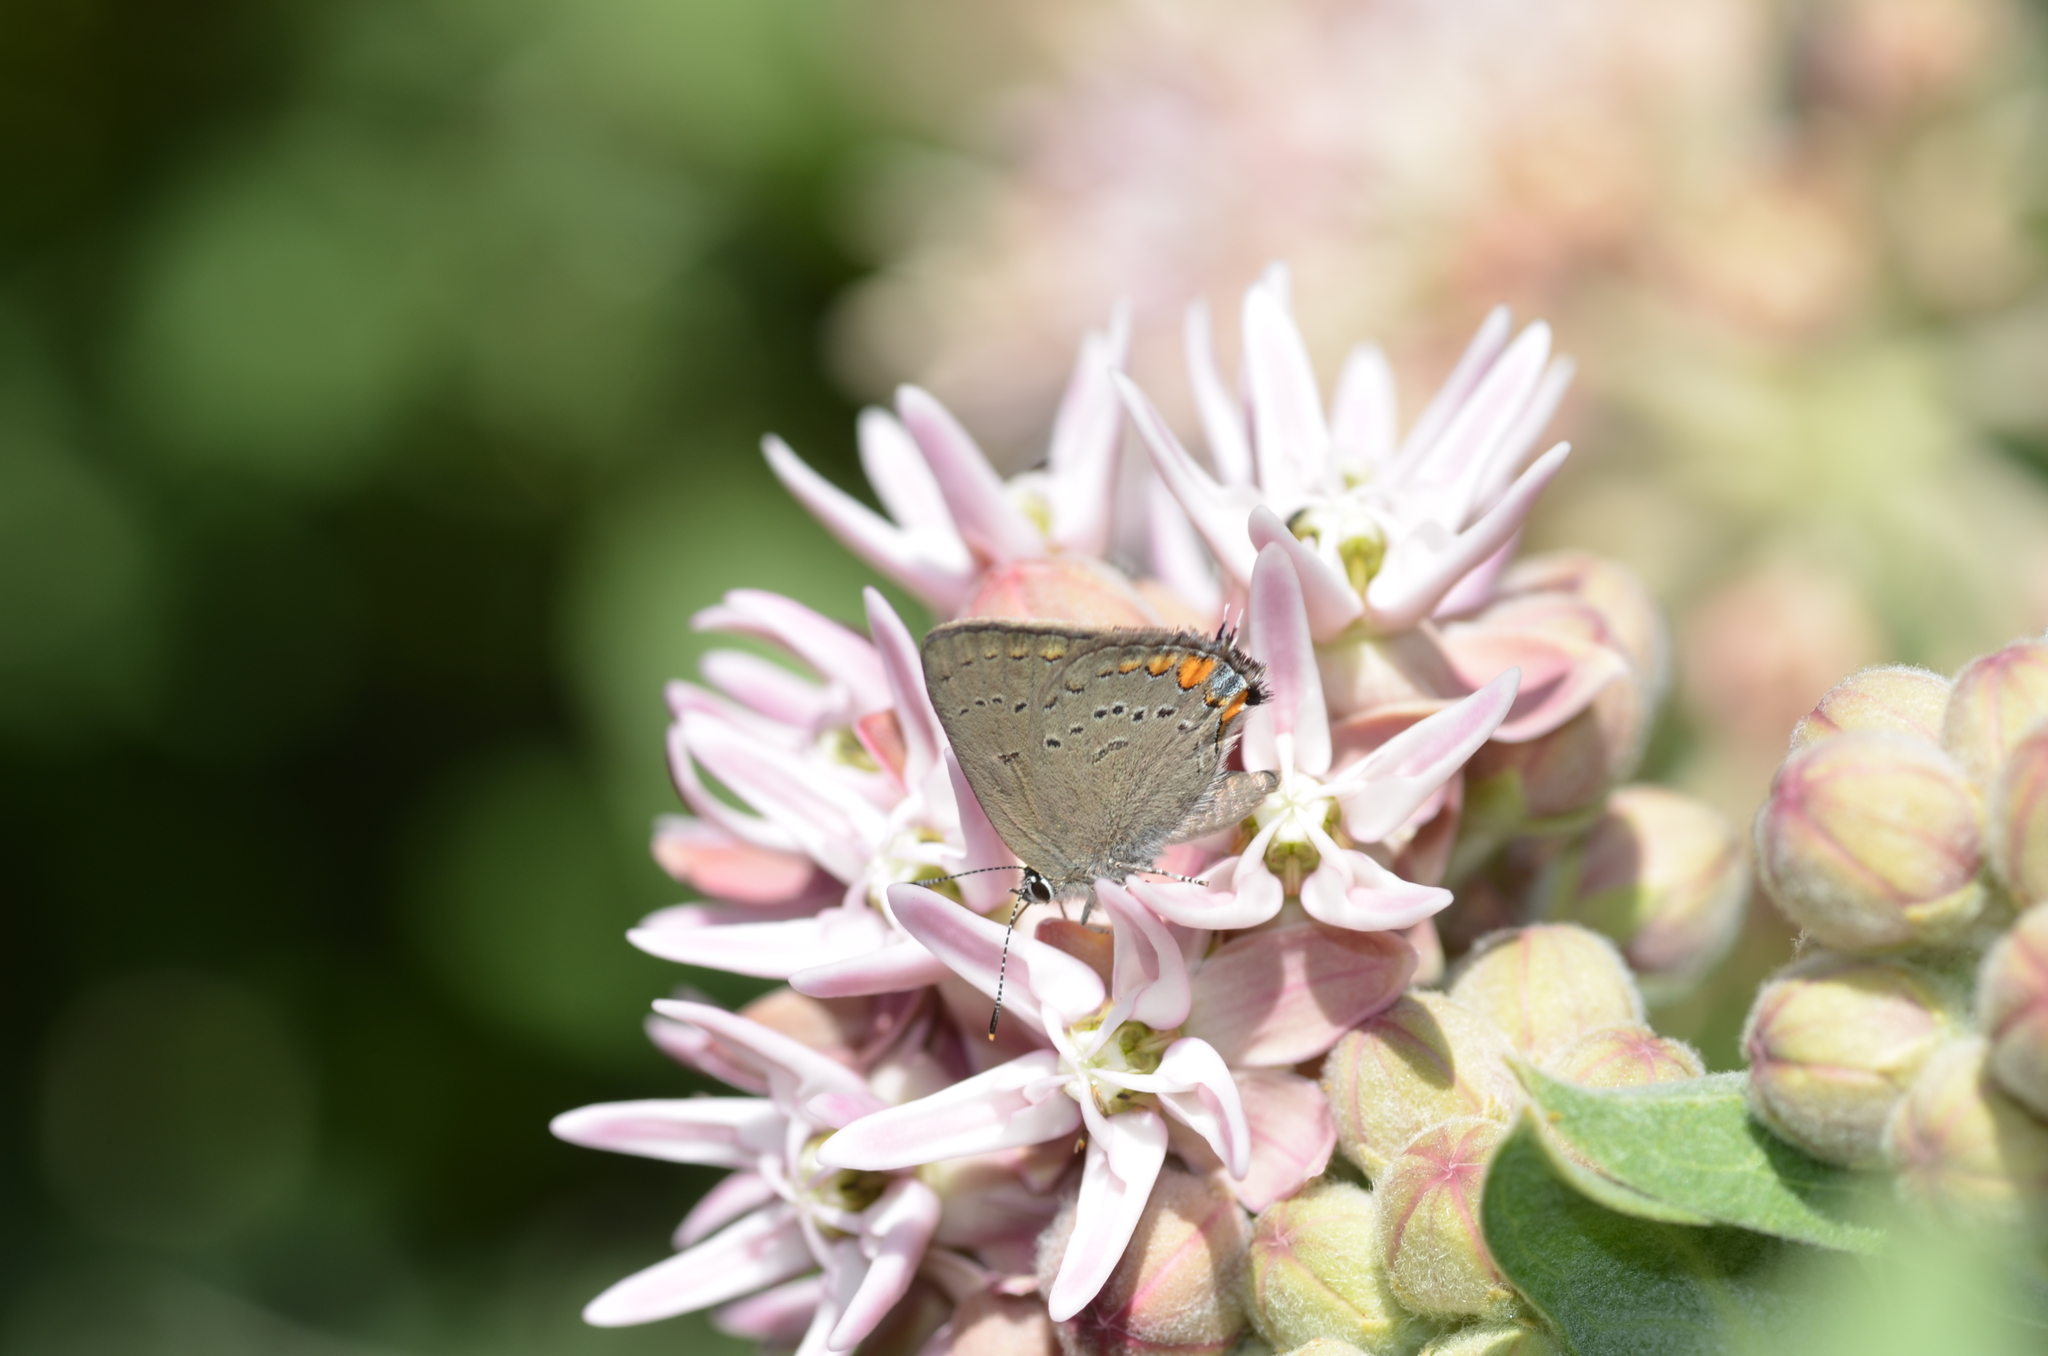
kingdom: Animalia
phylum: Arthropoda
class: Insecta
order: Lepidoptera
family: Lycaenidae
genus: Strymon
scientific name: Strymon acadica
